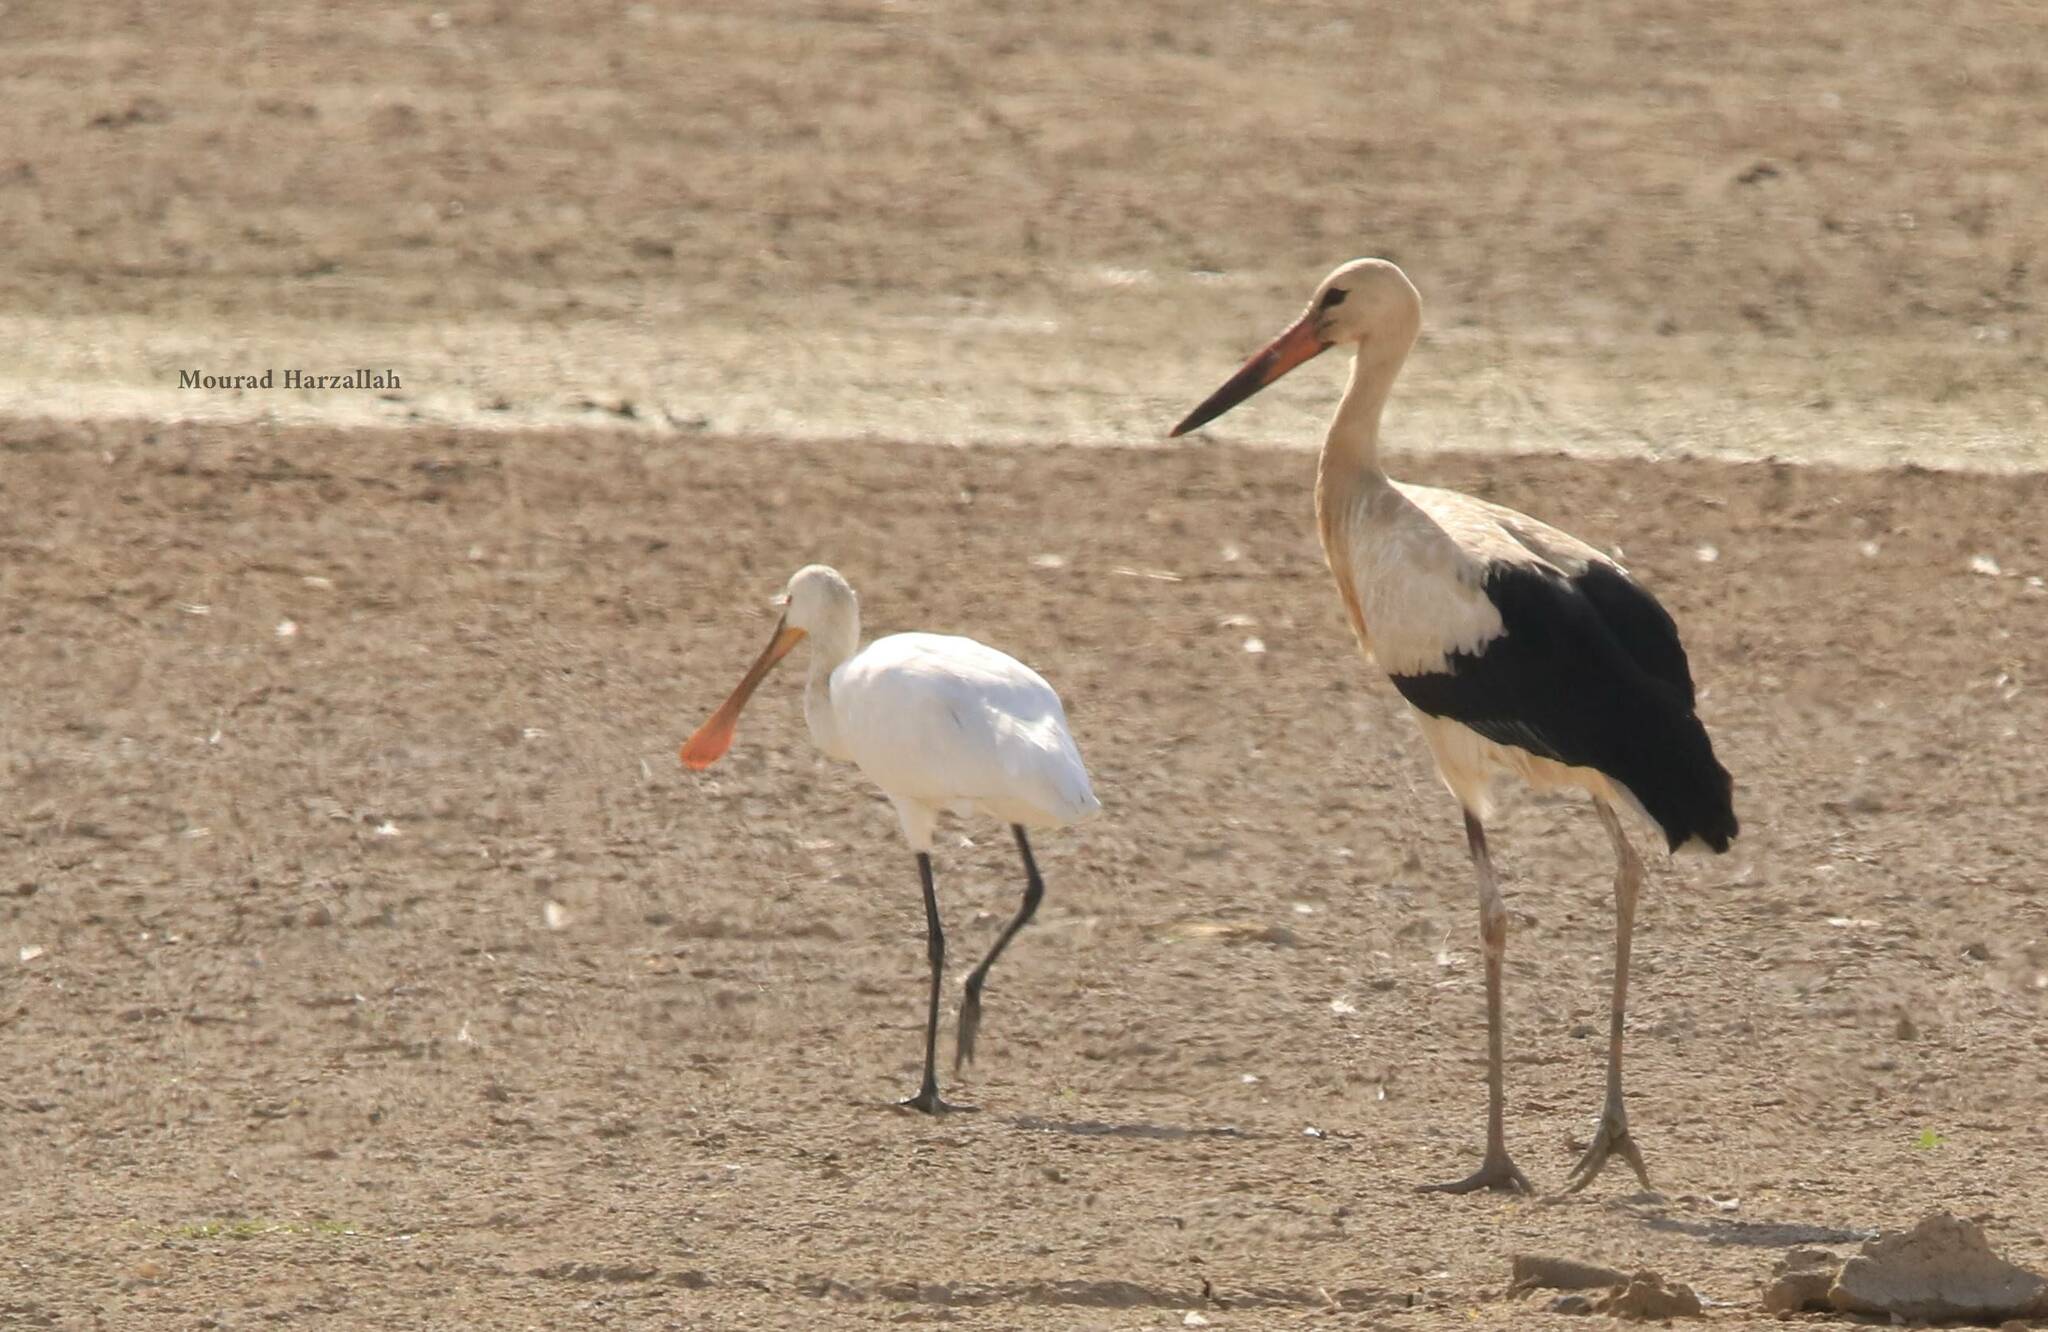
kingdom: Animalia
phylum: Chordata
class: Aves
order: Ciconiiformes
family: Ciconiidae
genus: Ciconia
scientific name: Ciconia ciconia
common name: White stork
